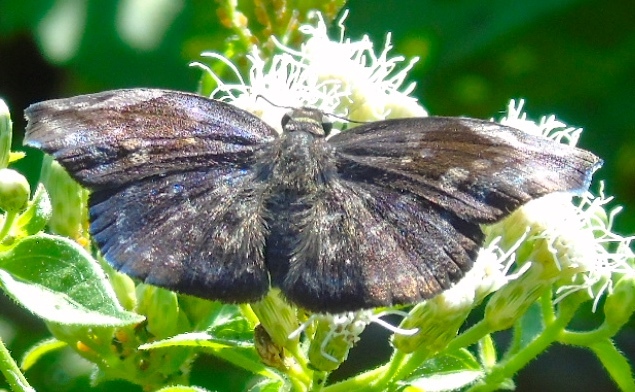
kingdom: Animalia
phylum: Arthropoda
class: Insecta
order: Lepidoptera
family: Hesperiidae
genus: Achlyodes
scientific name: Achlyodes thraso
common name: Sickle-winged skipper
